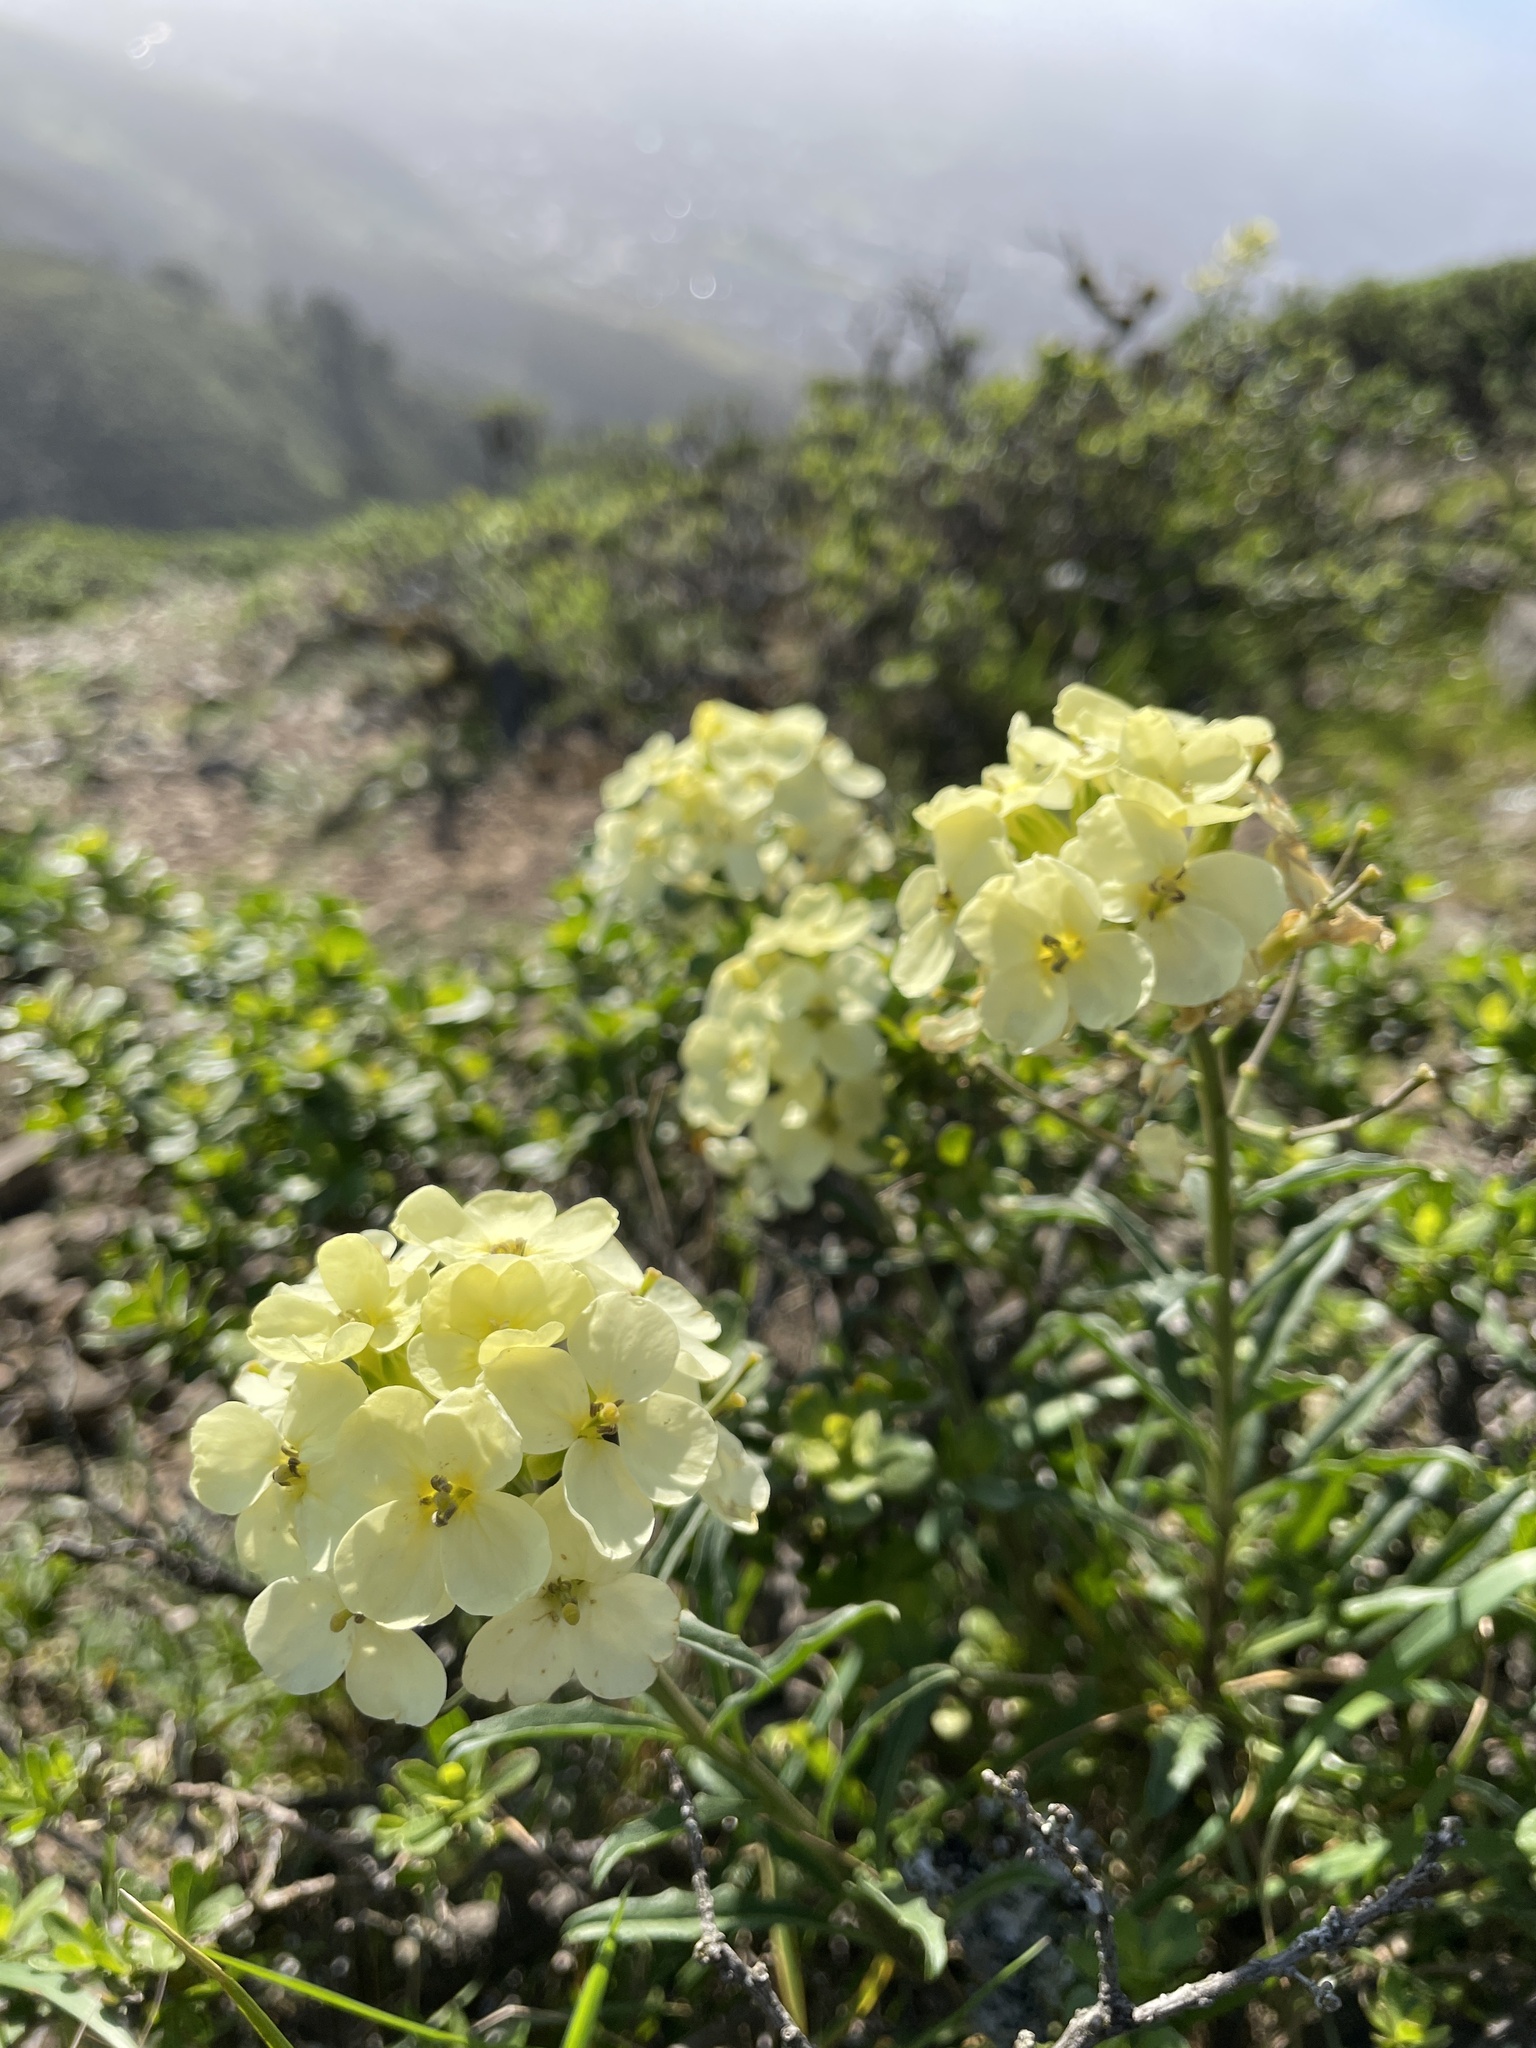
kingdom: Plantae
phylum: Tracheophyta
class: Magnoliopsida
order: Brassicales
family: Brassicaceae
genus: Erysimum
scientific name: Erysimum franciscanum
